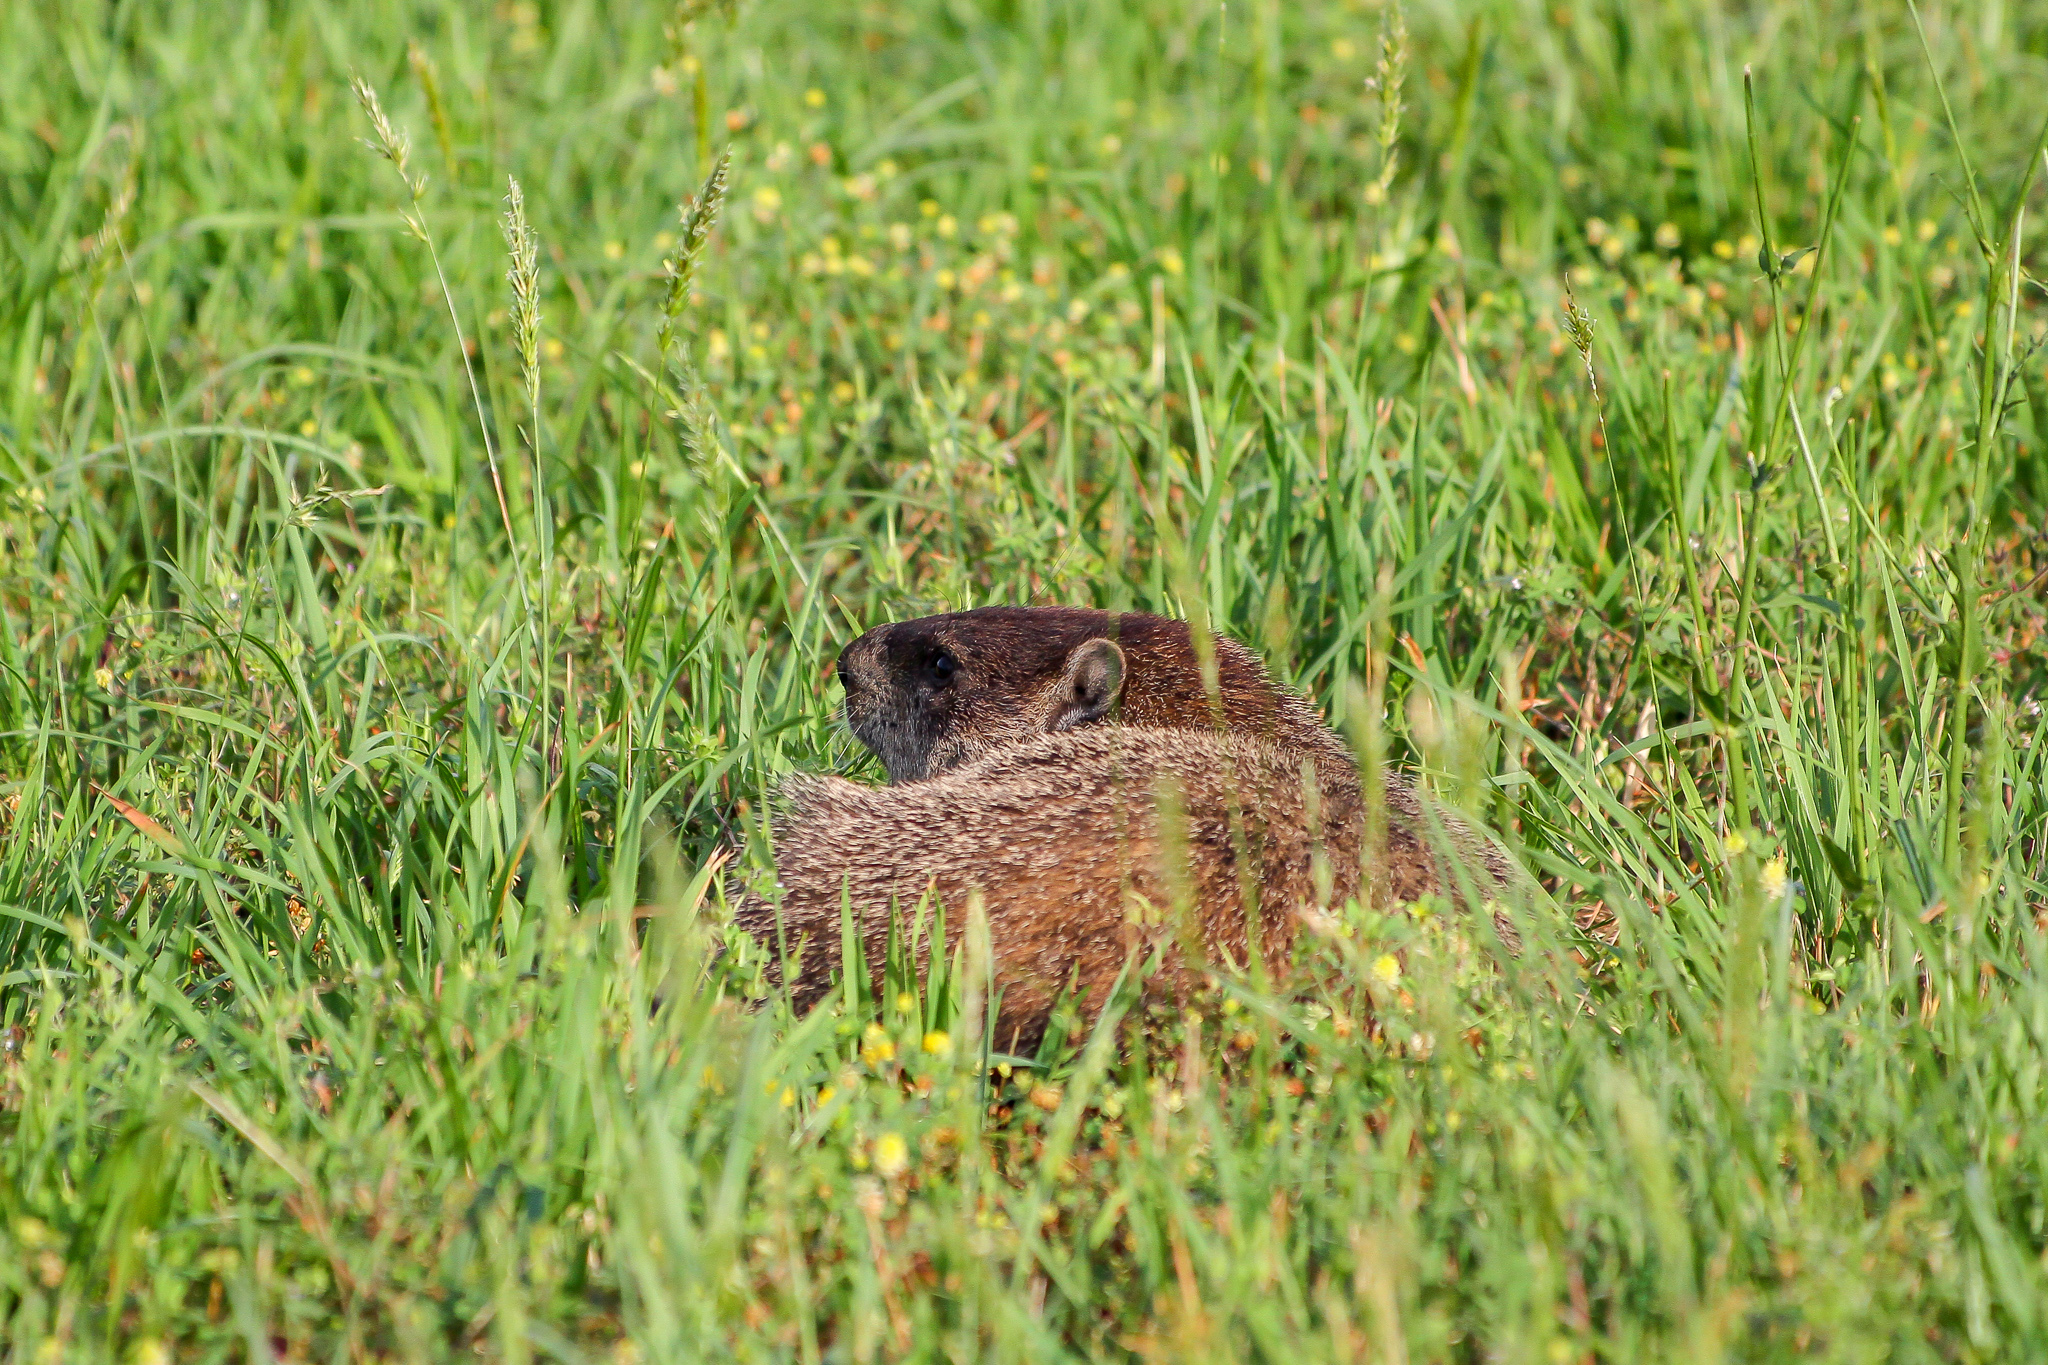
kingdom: Animalia
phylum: Chordata
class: Mammalia
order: Rodentia
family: Sciuridae
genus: Marmota
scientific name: Marmota monax
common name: Groundhog
